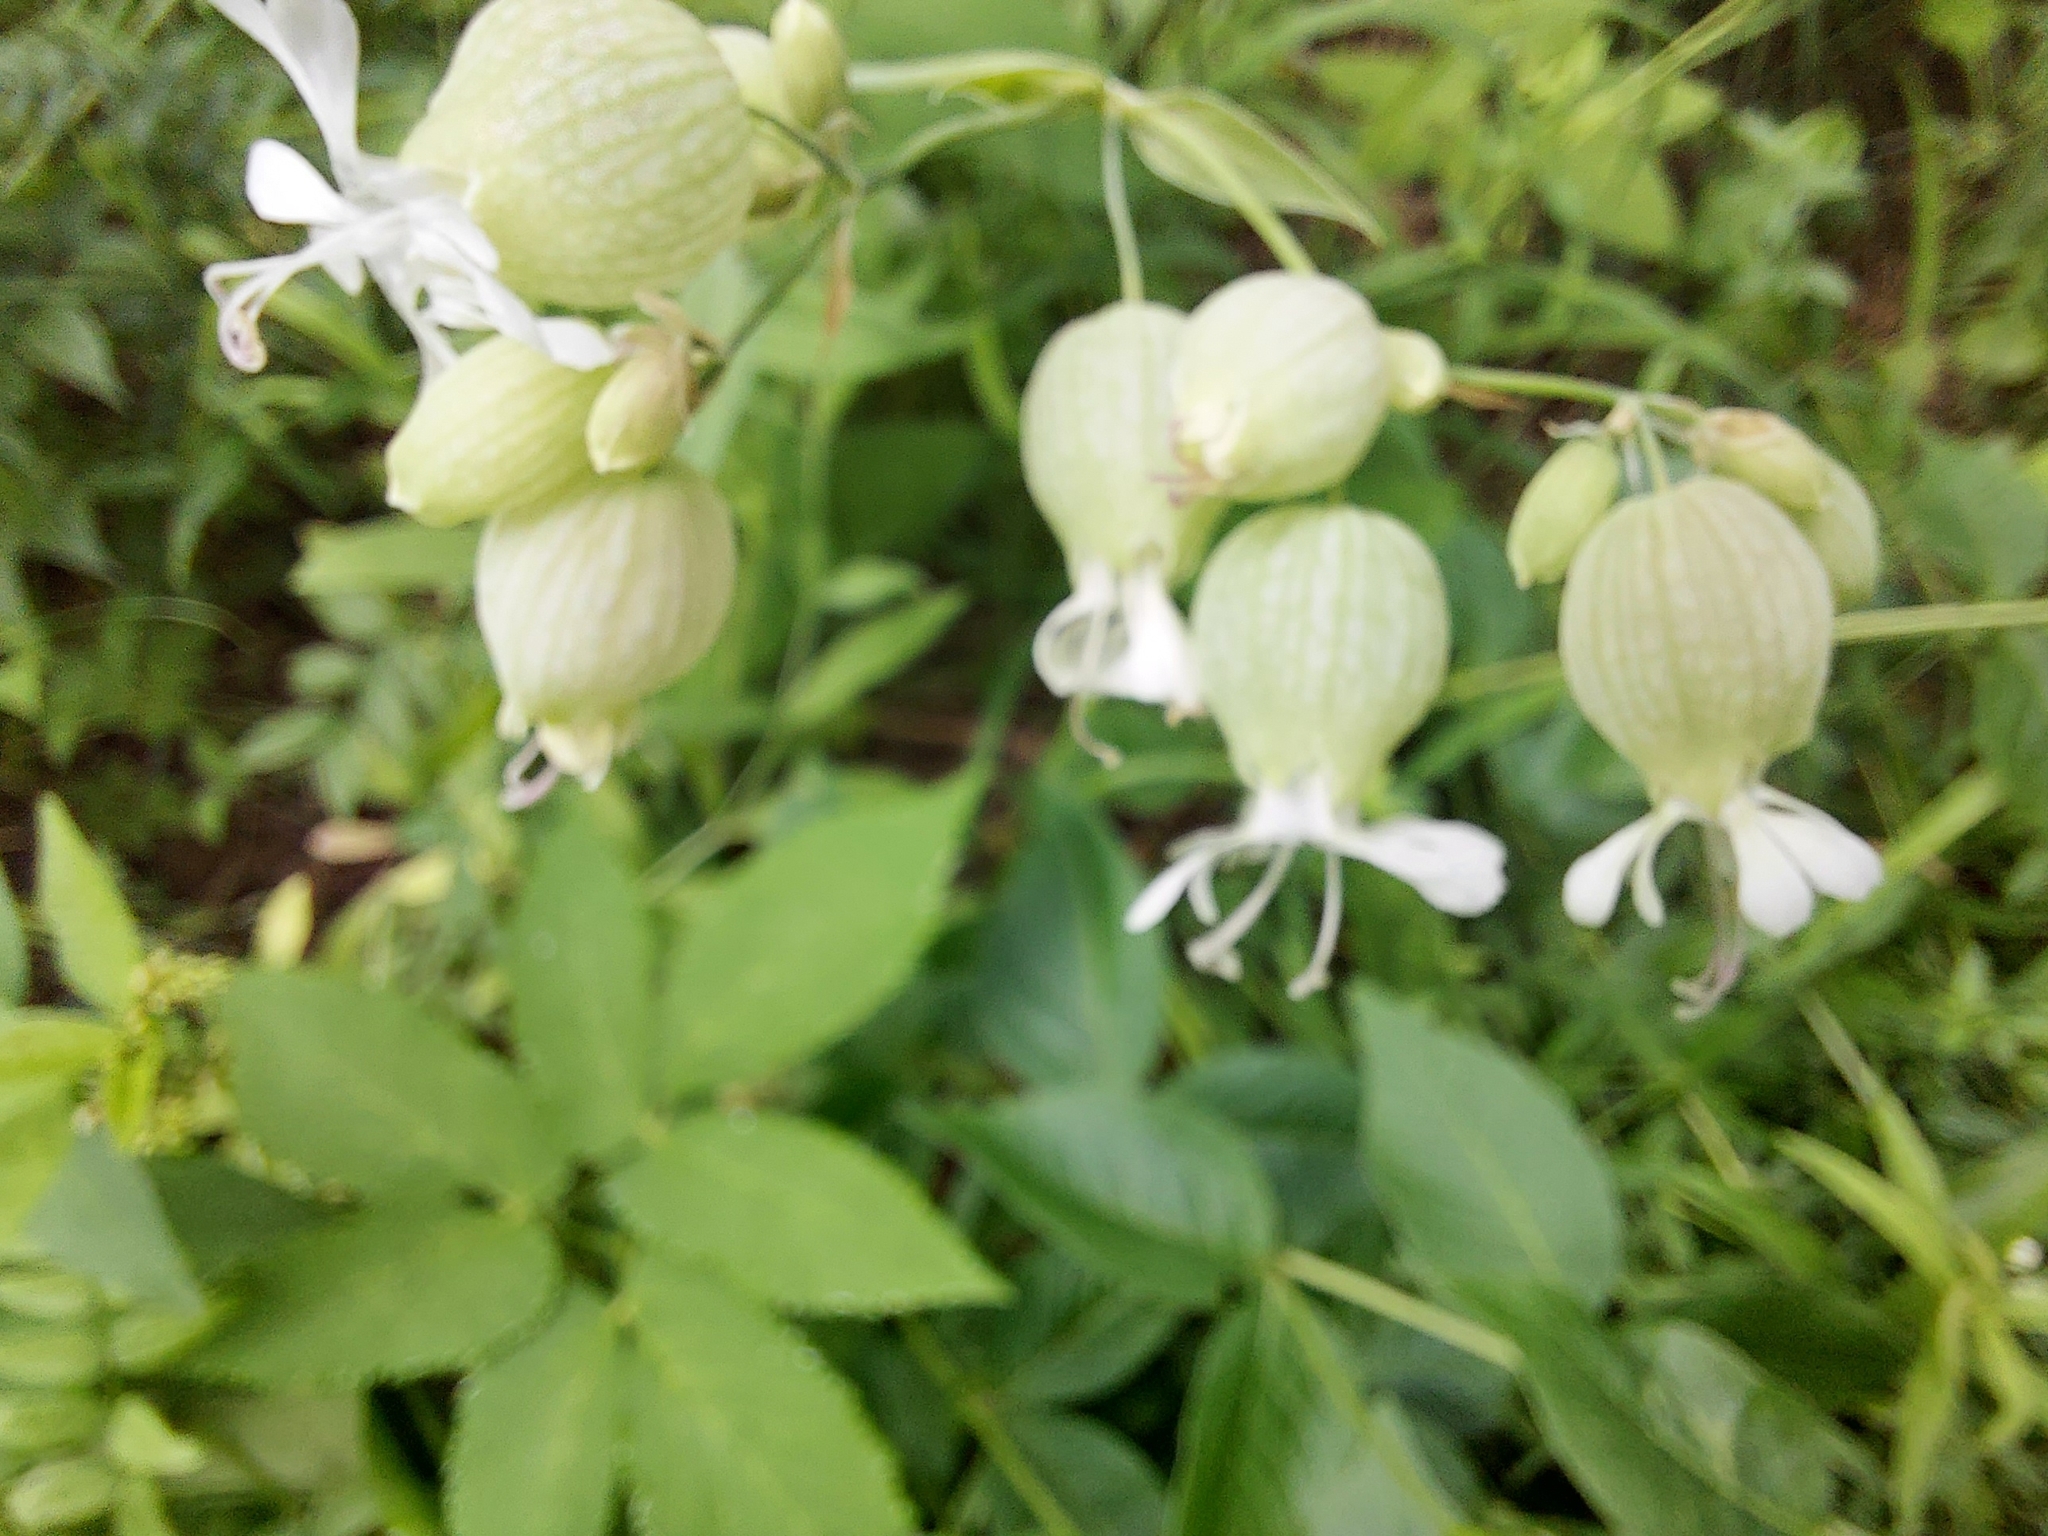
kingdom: Plantae
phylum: Tracheophyta
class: Magnoliopsida
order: Caryophyllales
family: Caryophyllaceae
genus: Silene
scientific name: Silene vulgaris
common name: Bladder campion
